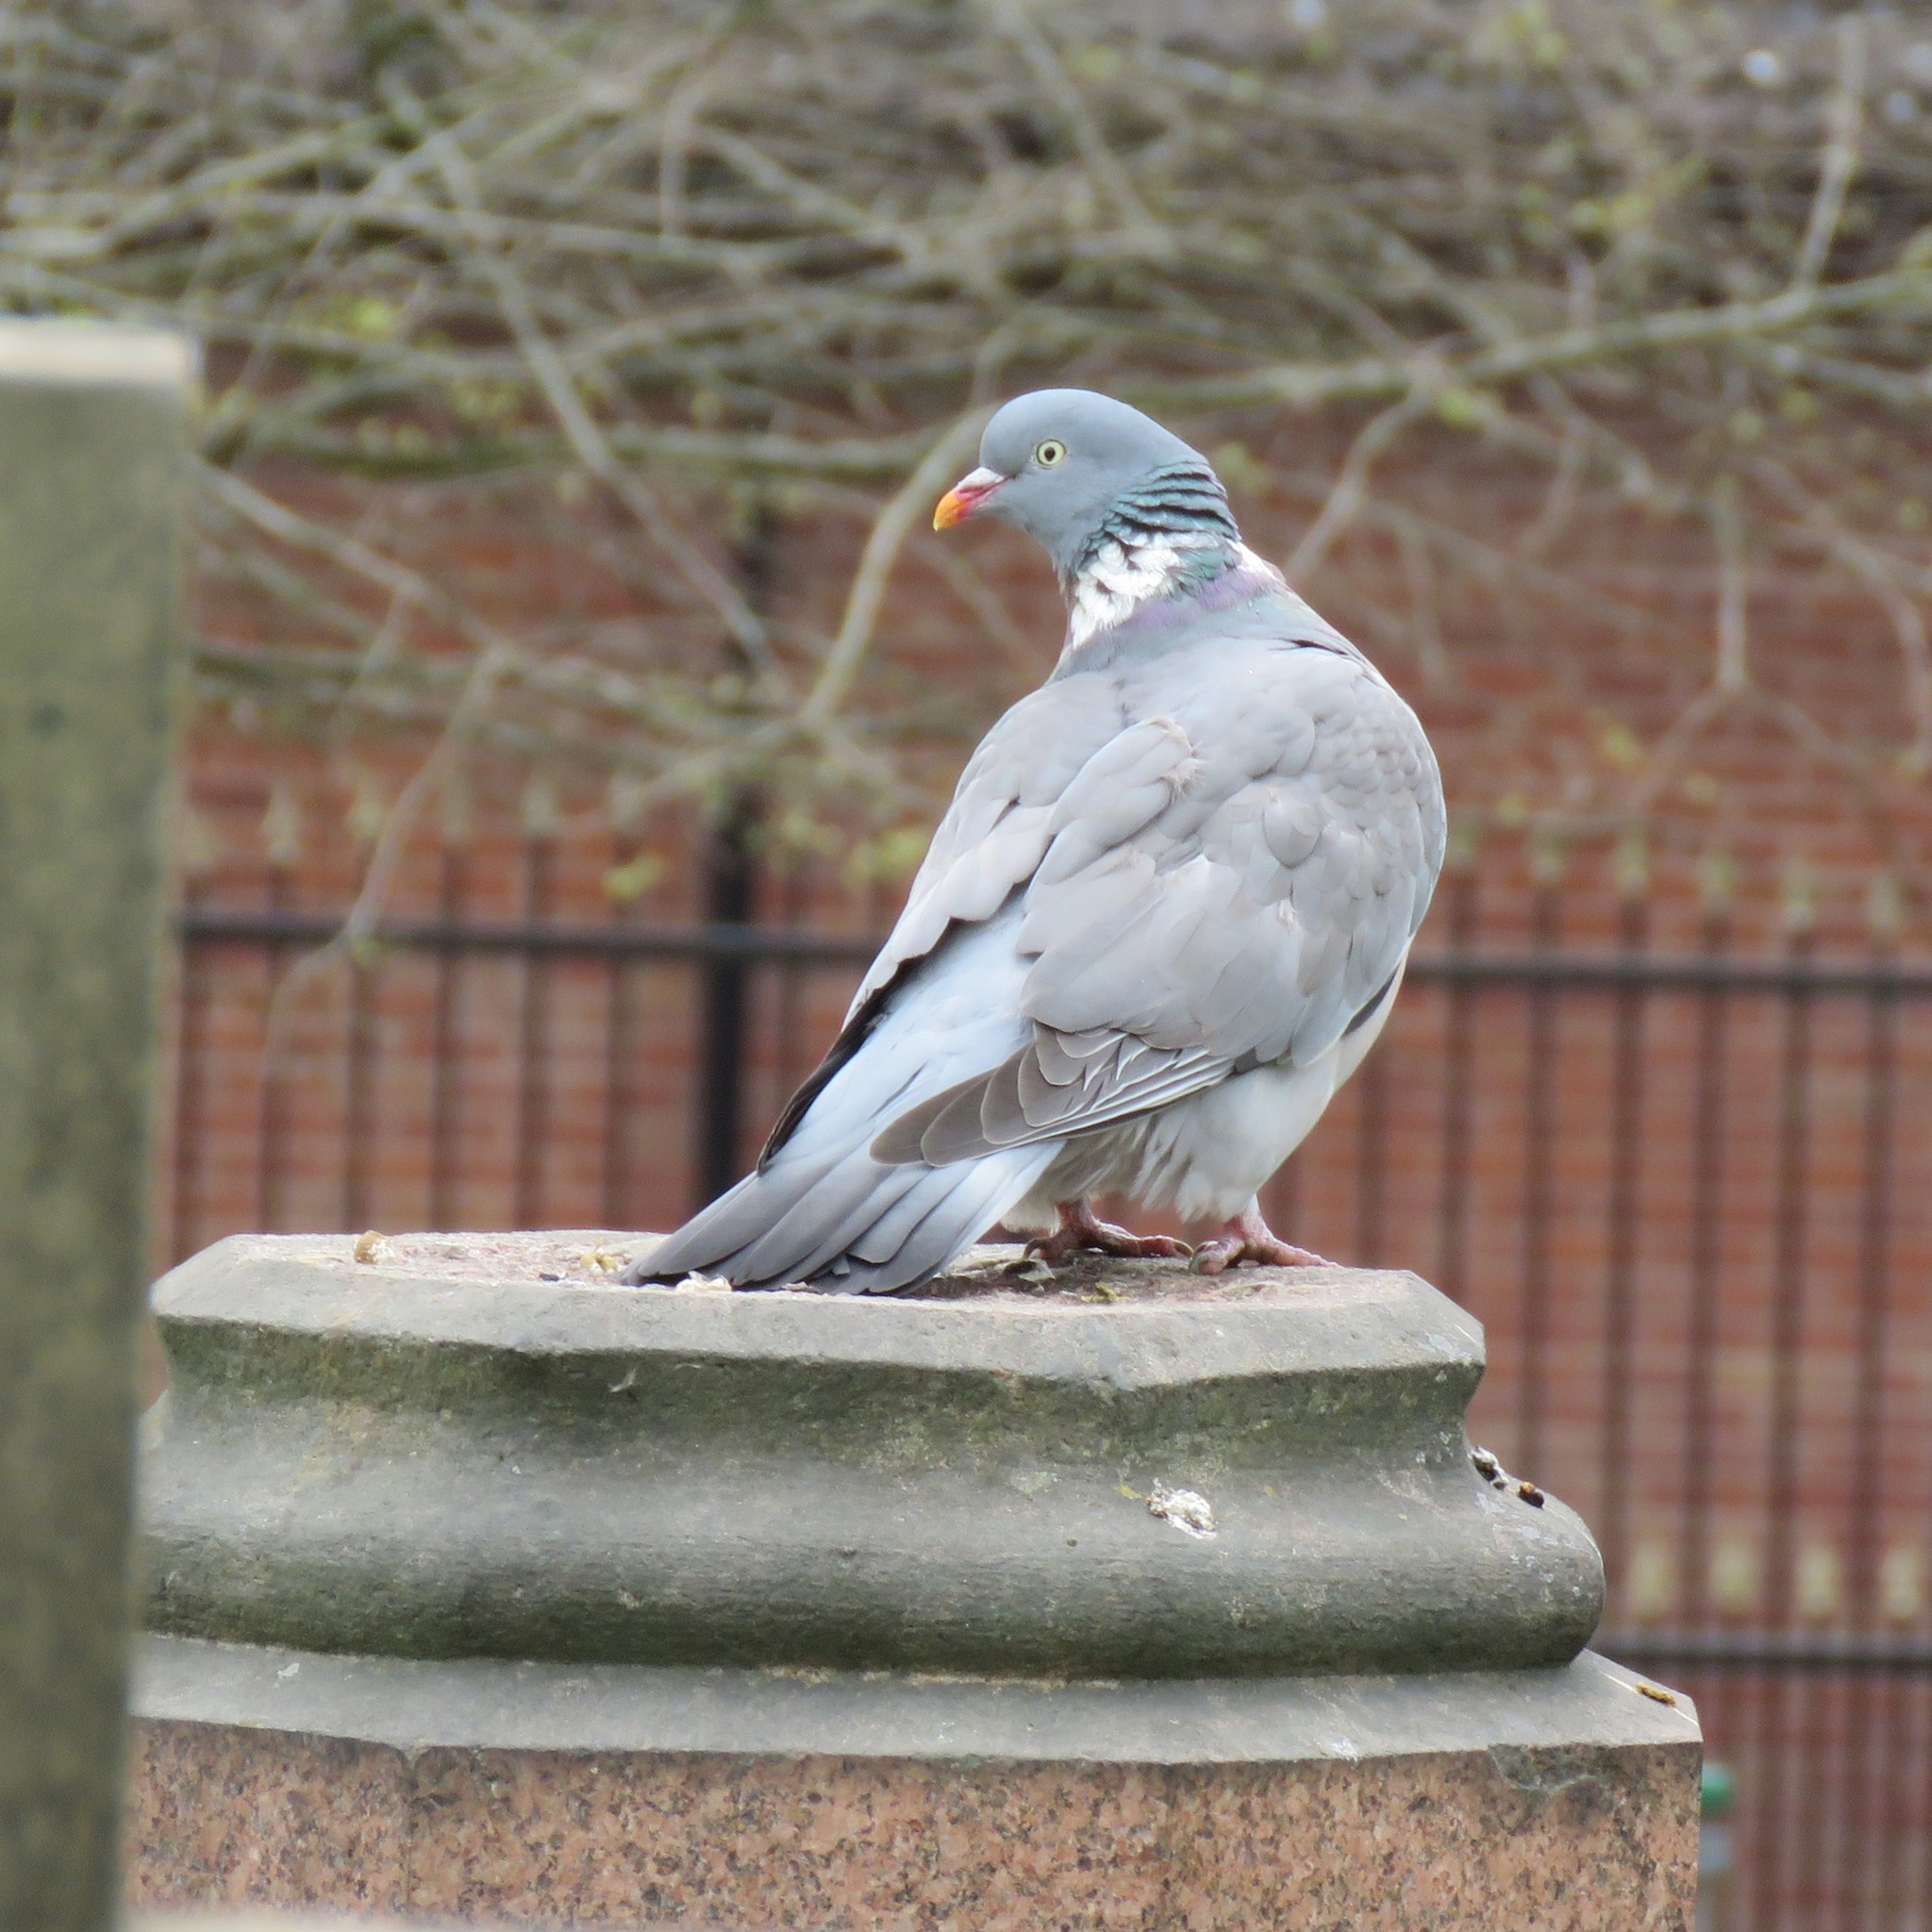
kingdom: Animalia
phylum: Chordata
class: Aves
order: Columbiformes
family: Columbidae
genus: Columba
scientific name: Columba palumbus
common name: Common wood pigeon
